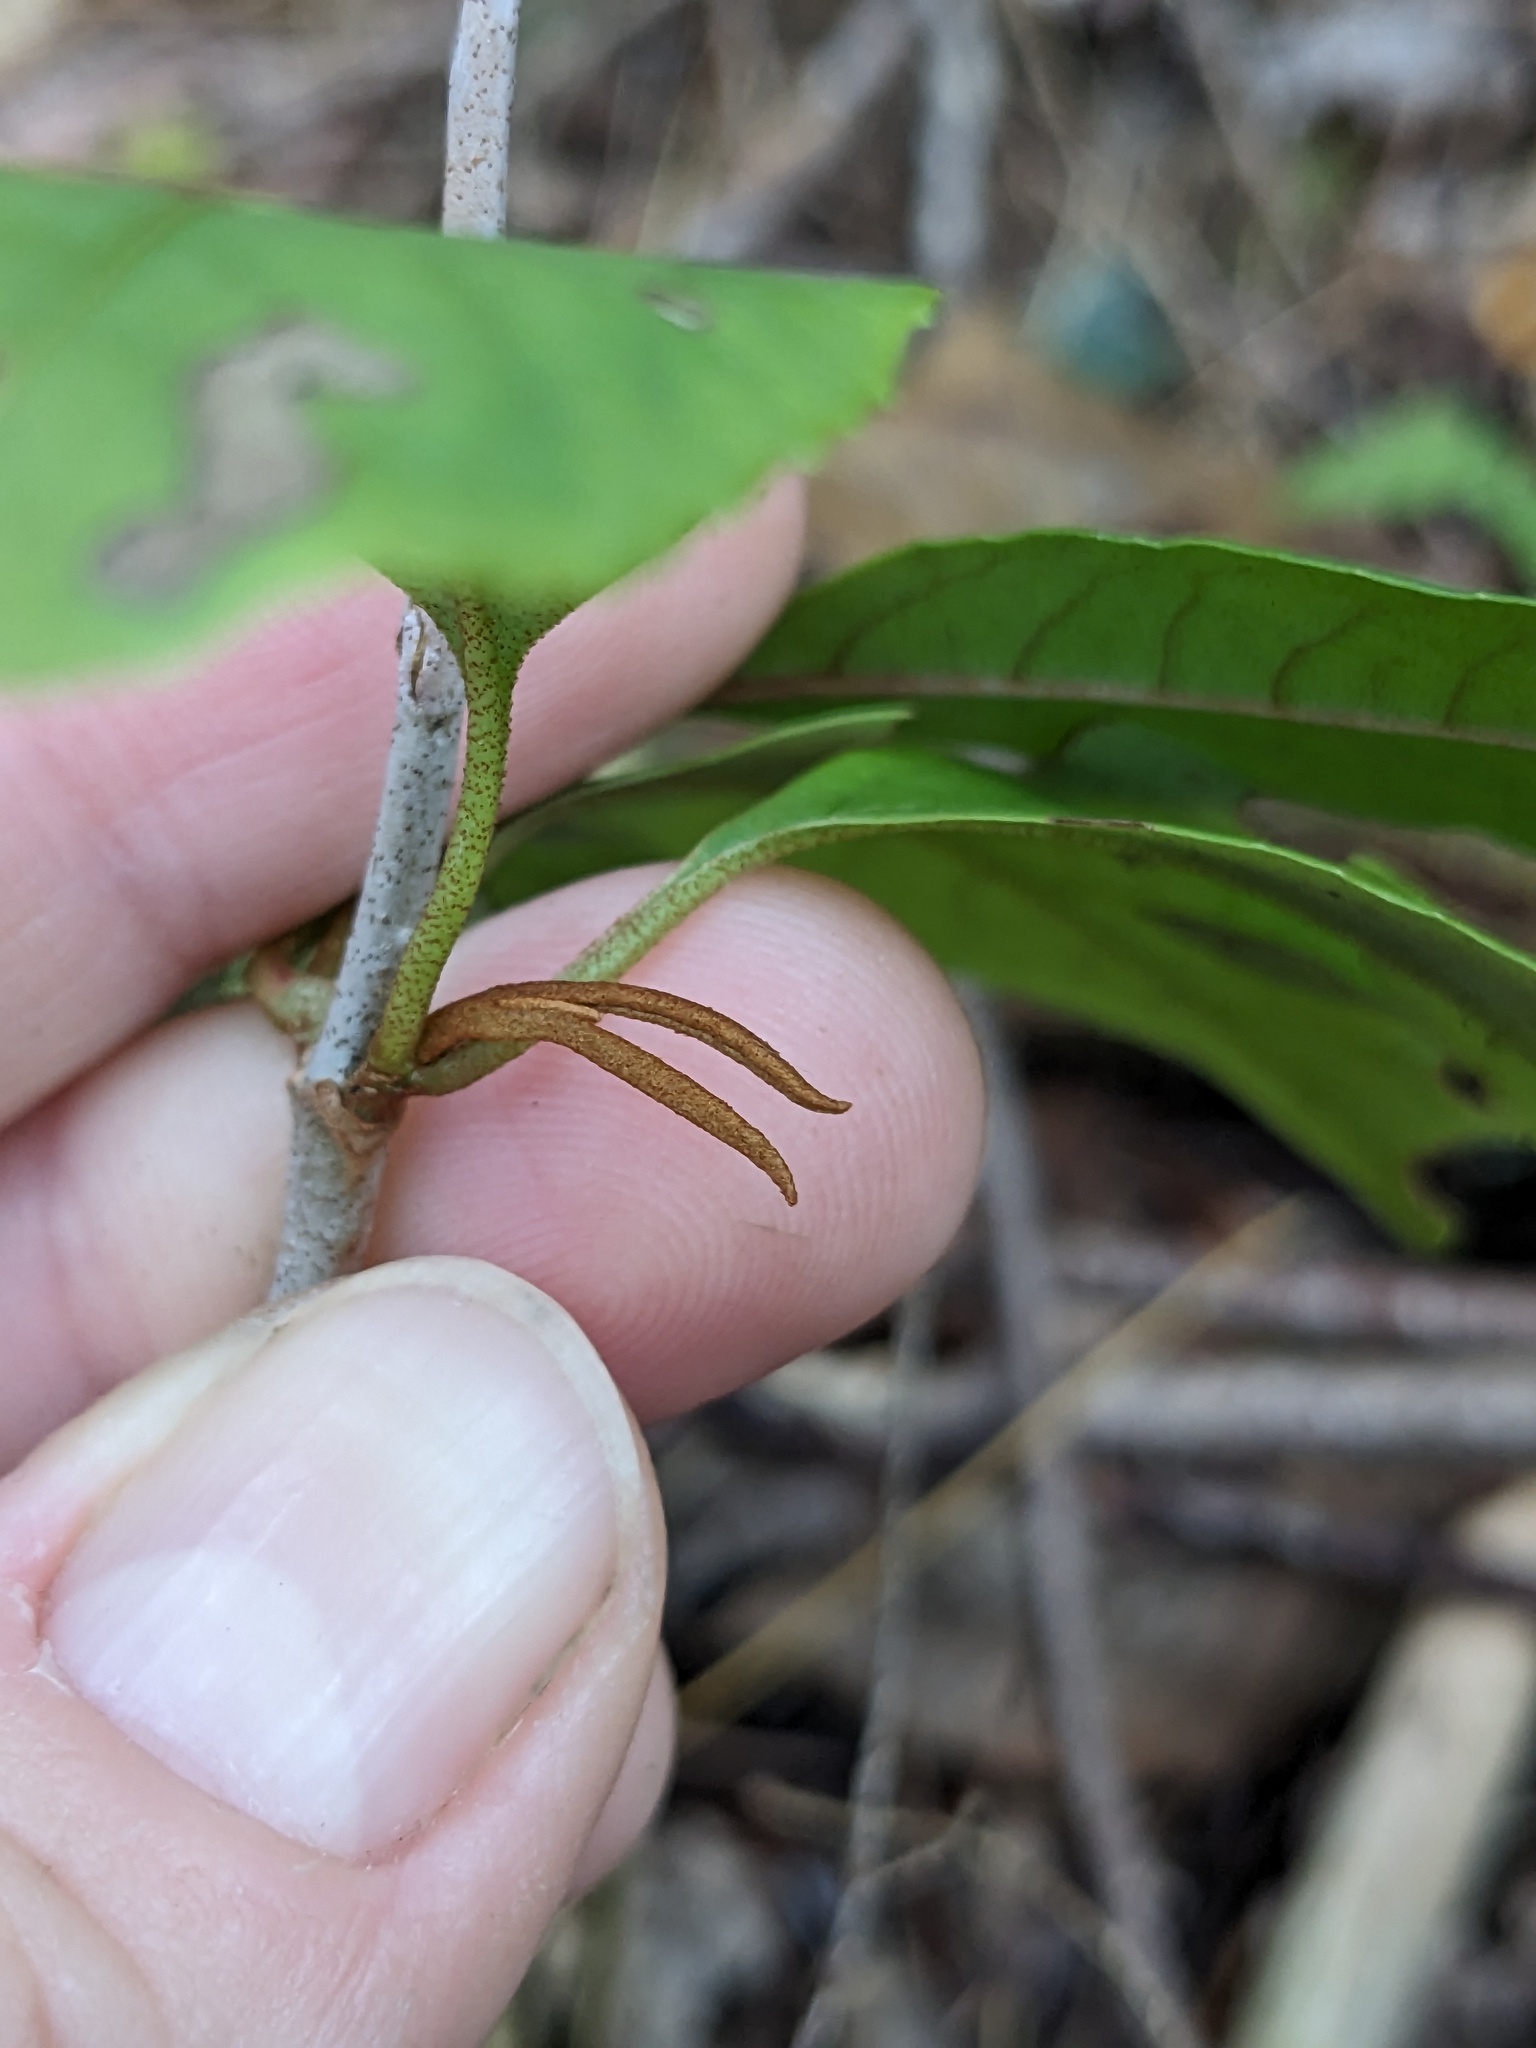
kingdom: Plantae
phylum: Tracheophyta
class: Magnoliopsida
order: Dipsacales
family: Viburnaceae
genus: Viburnum
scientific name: Viburnum cassinoides
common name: Swamp haw
